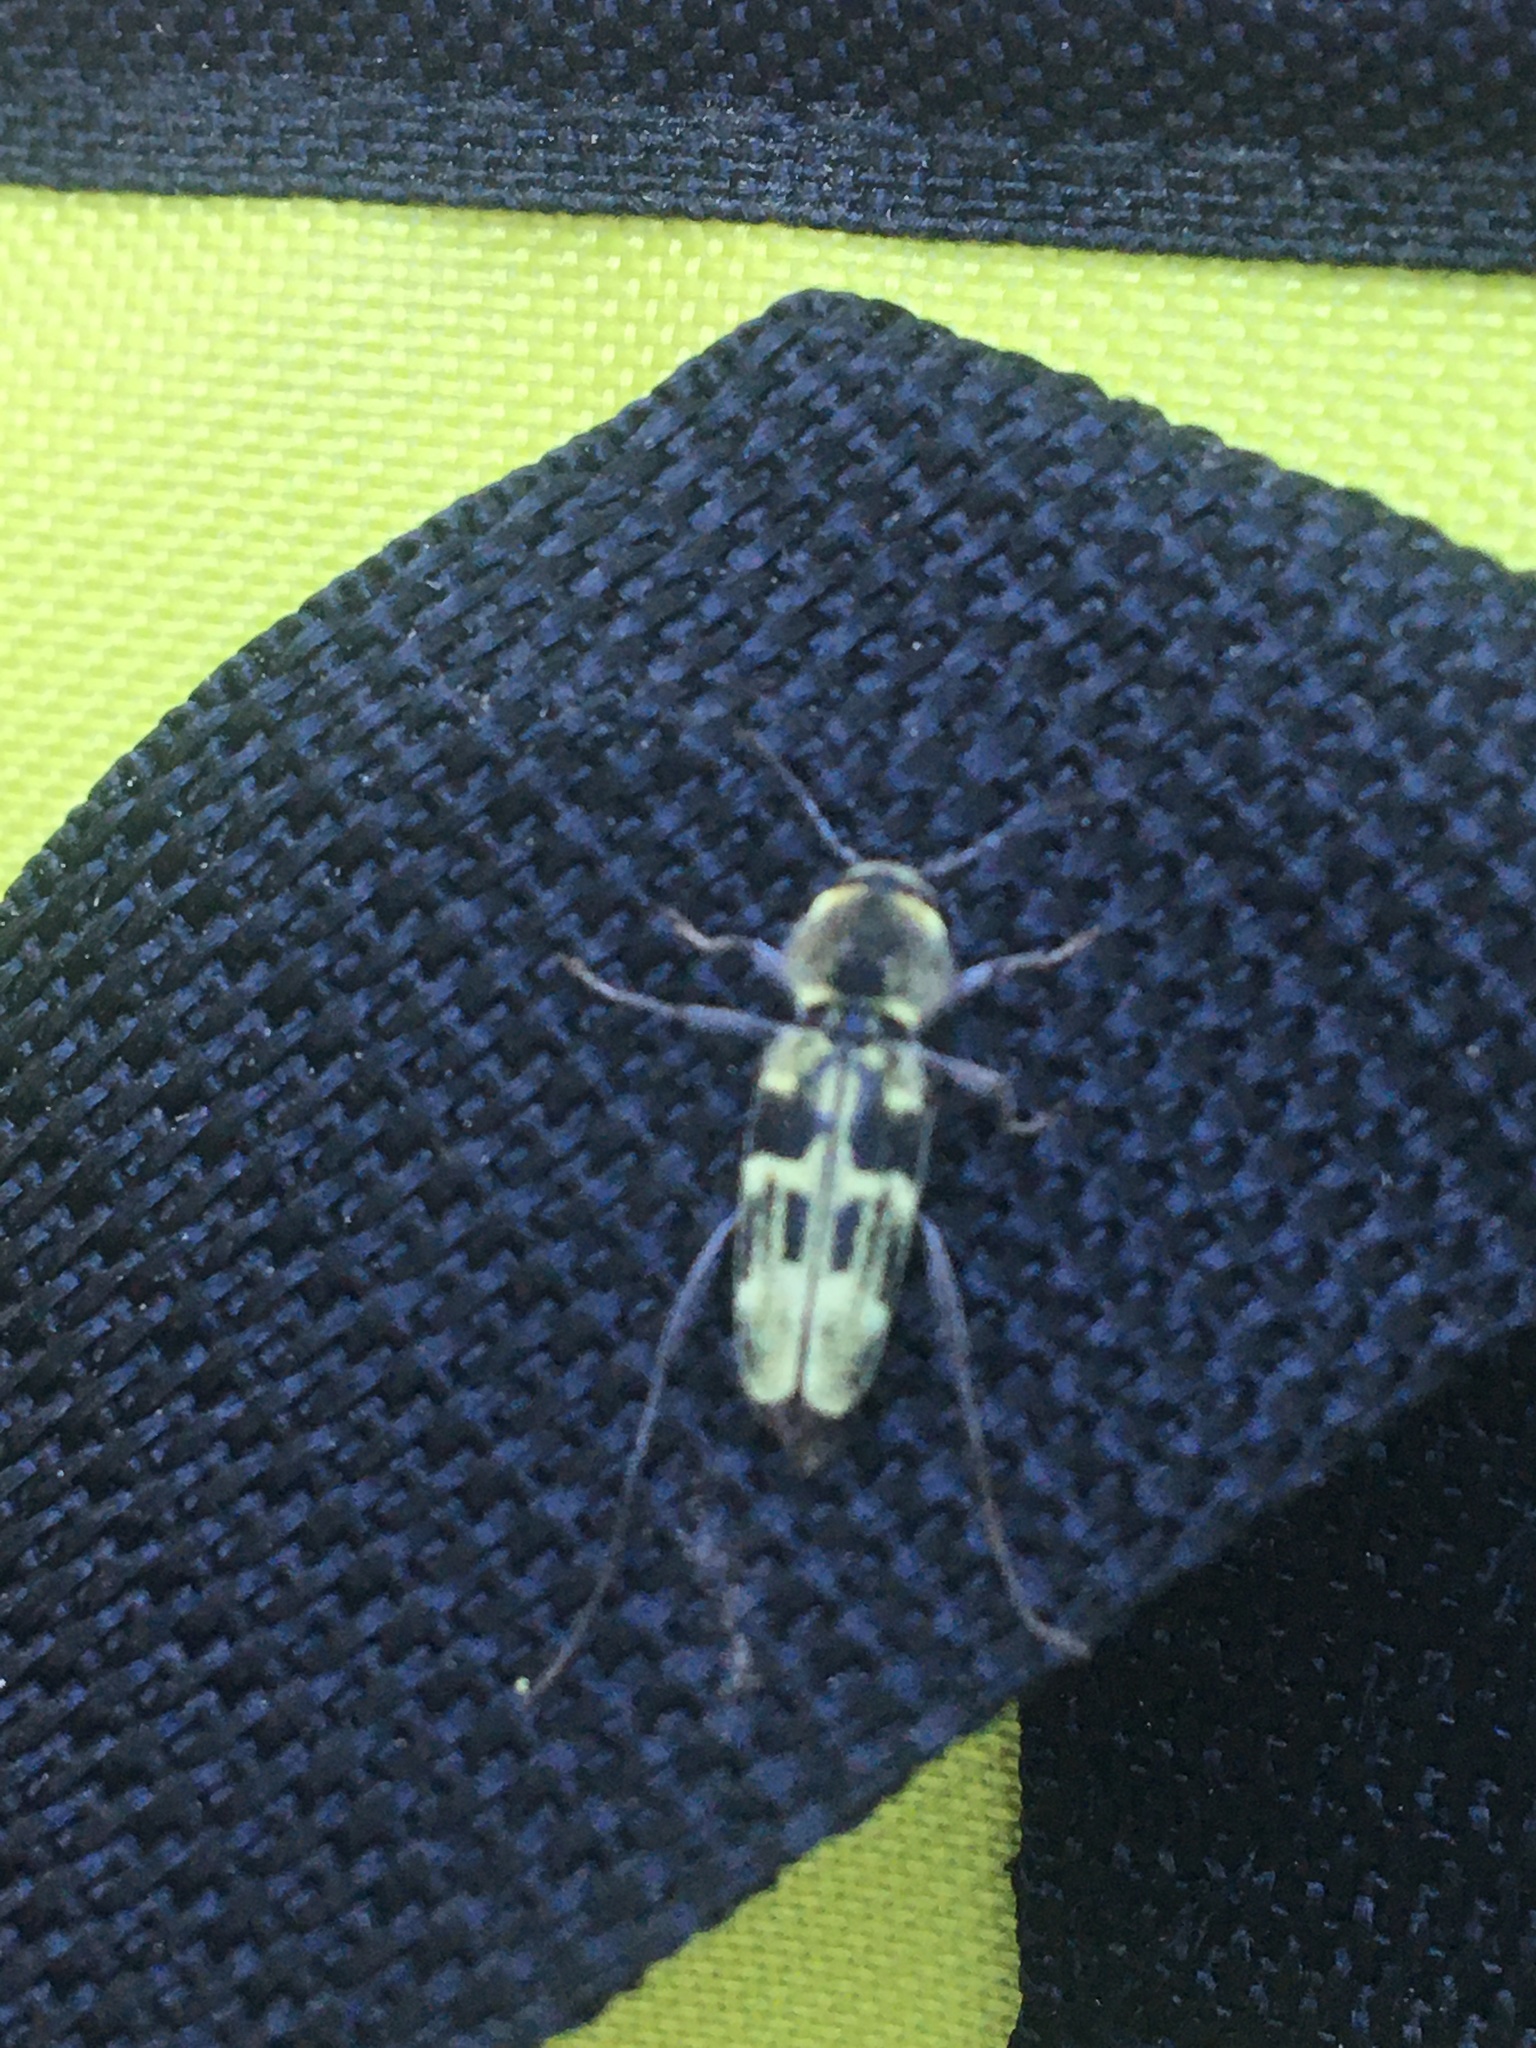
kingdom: Animalia
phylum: Arthropoda
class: Insecta
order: Coleoptera
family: Cerambycidae
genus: Xylotrechus
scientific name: Xylotrechus albonotatus
